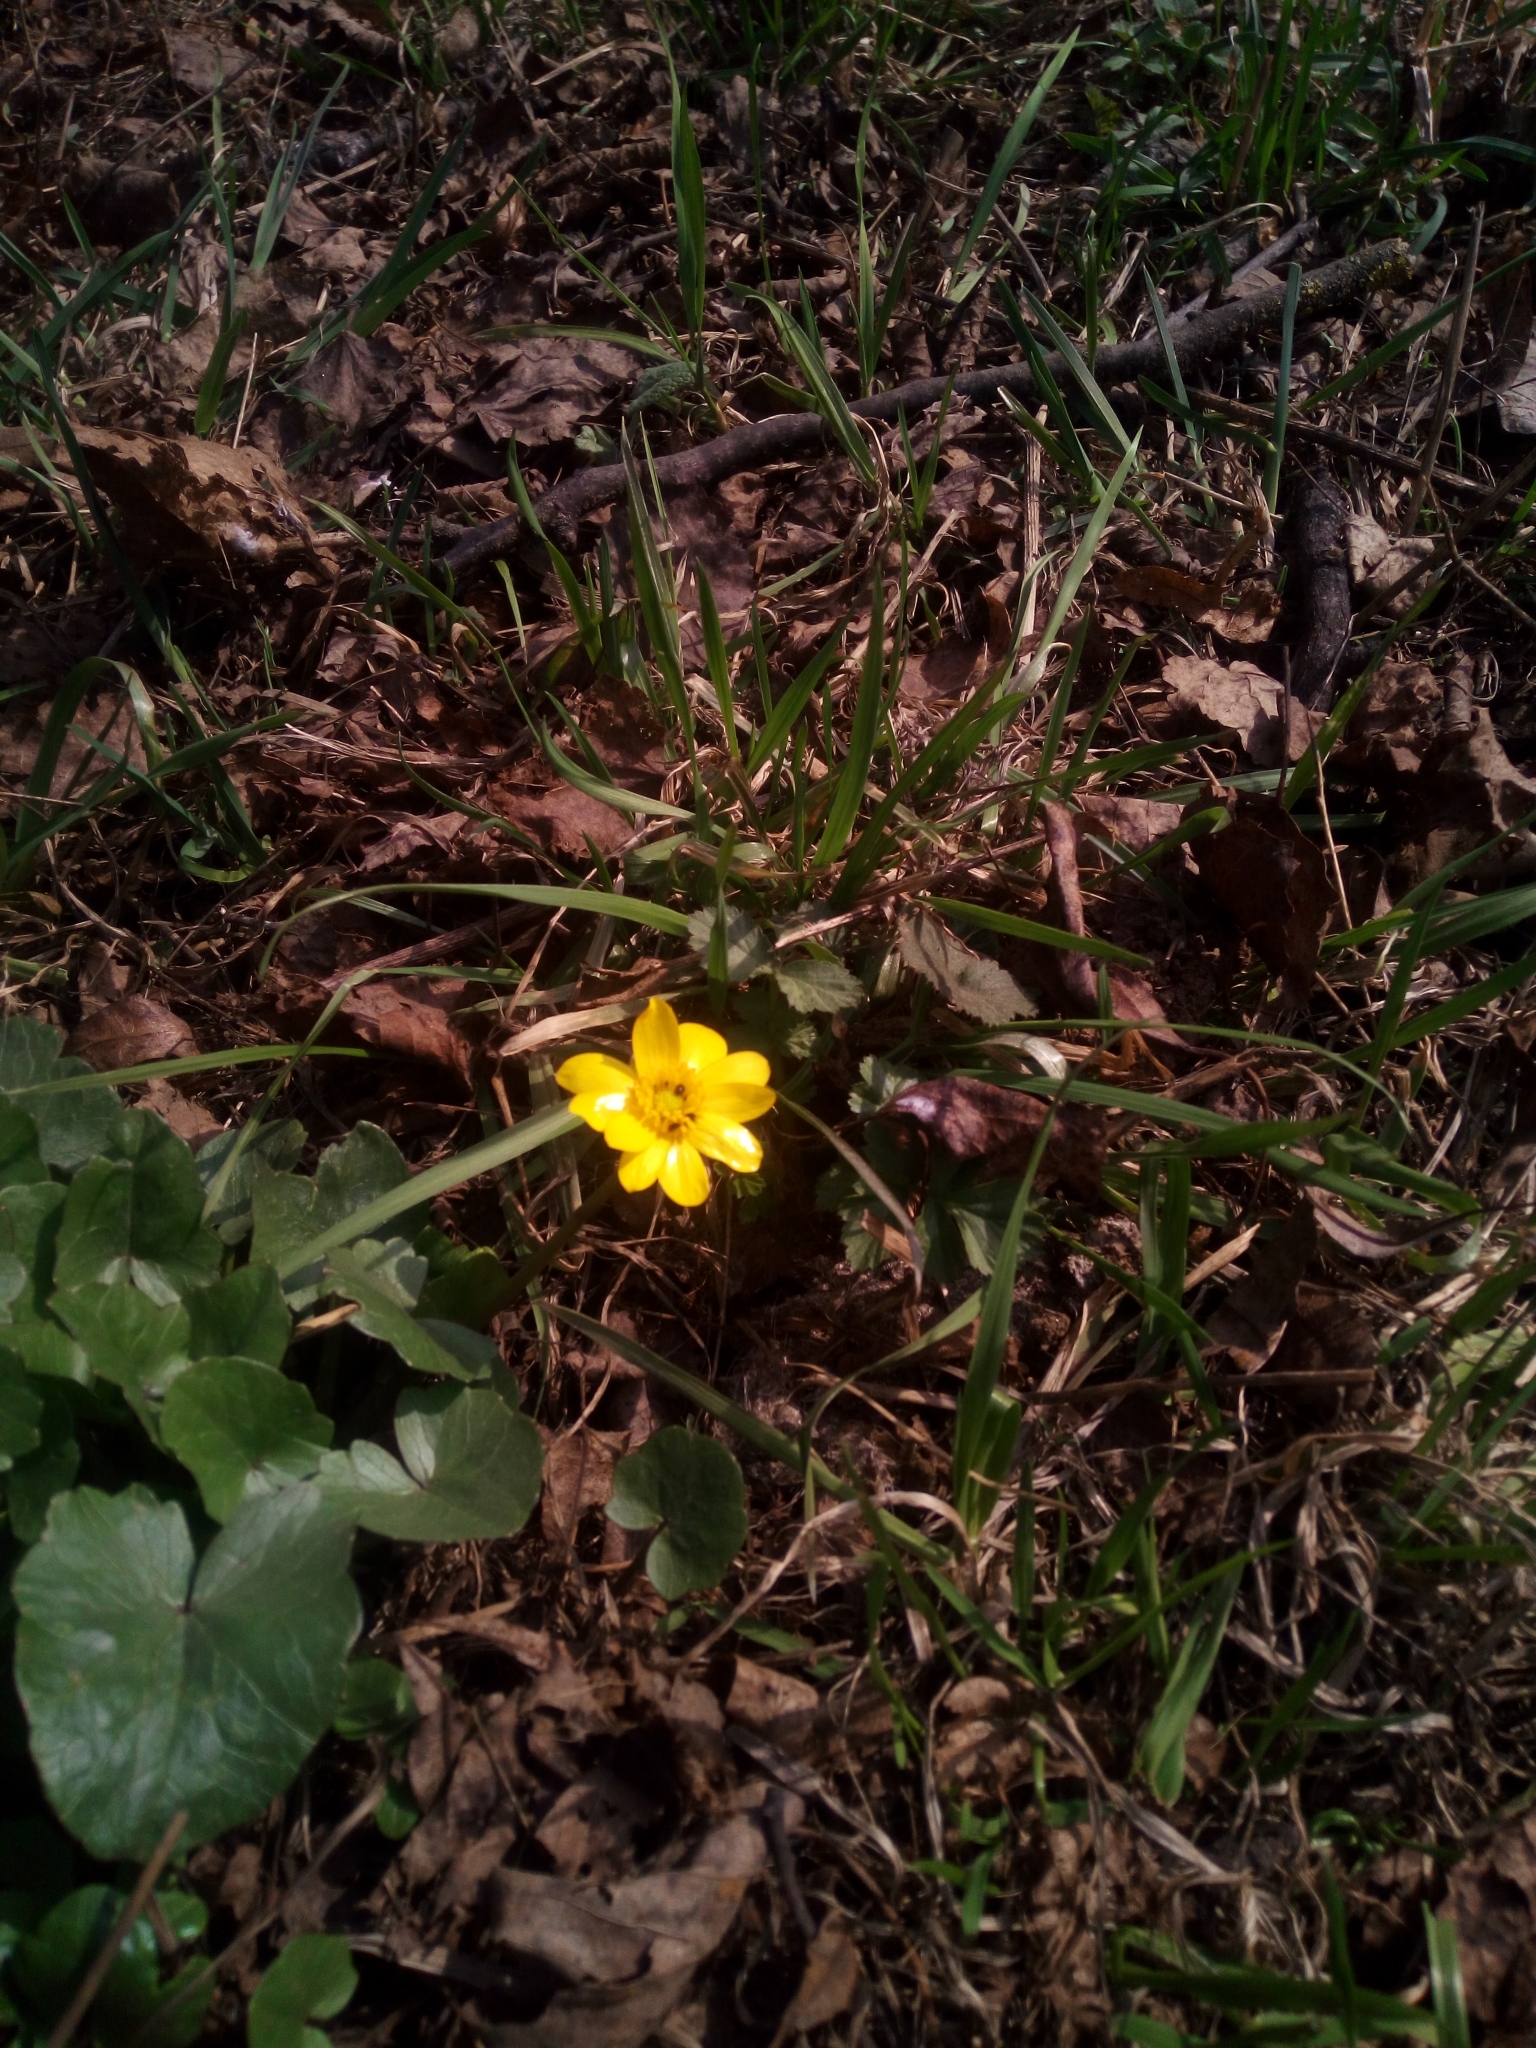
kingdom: Plantae
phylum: Tracheophyta
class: Magnoliopsida
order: Ranunculales
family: Ranunculaceae
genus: Ficaria
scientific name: Ficaria verna
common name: Lesser celandine
